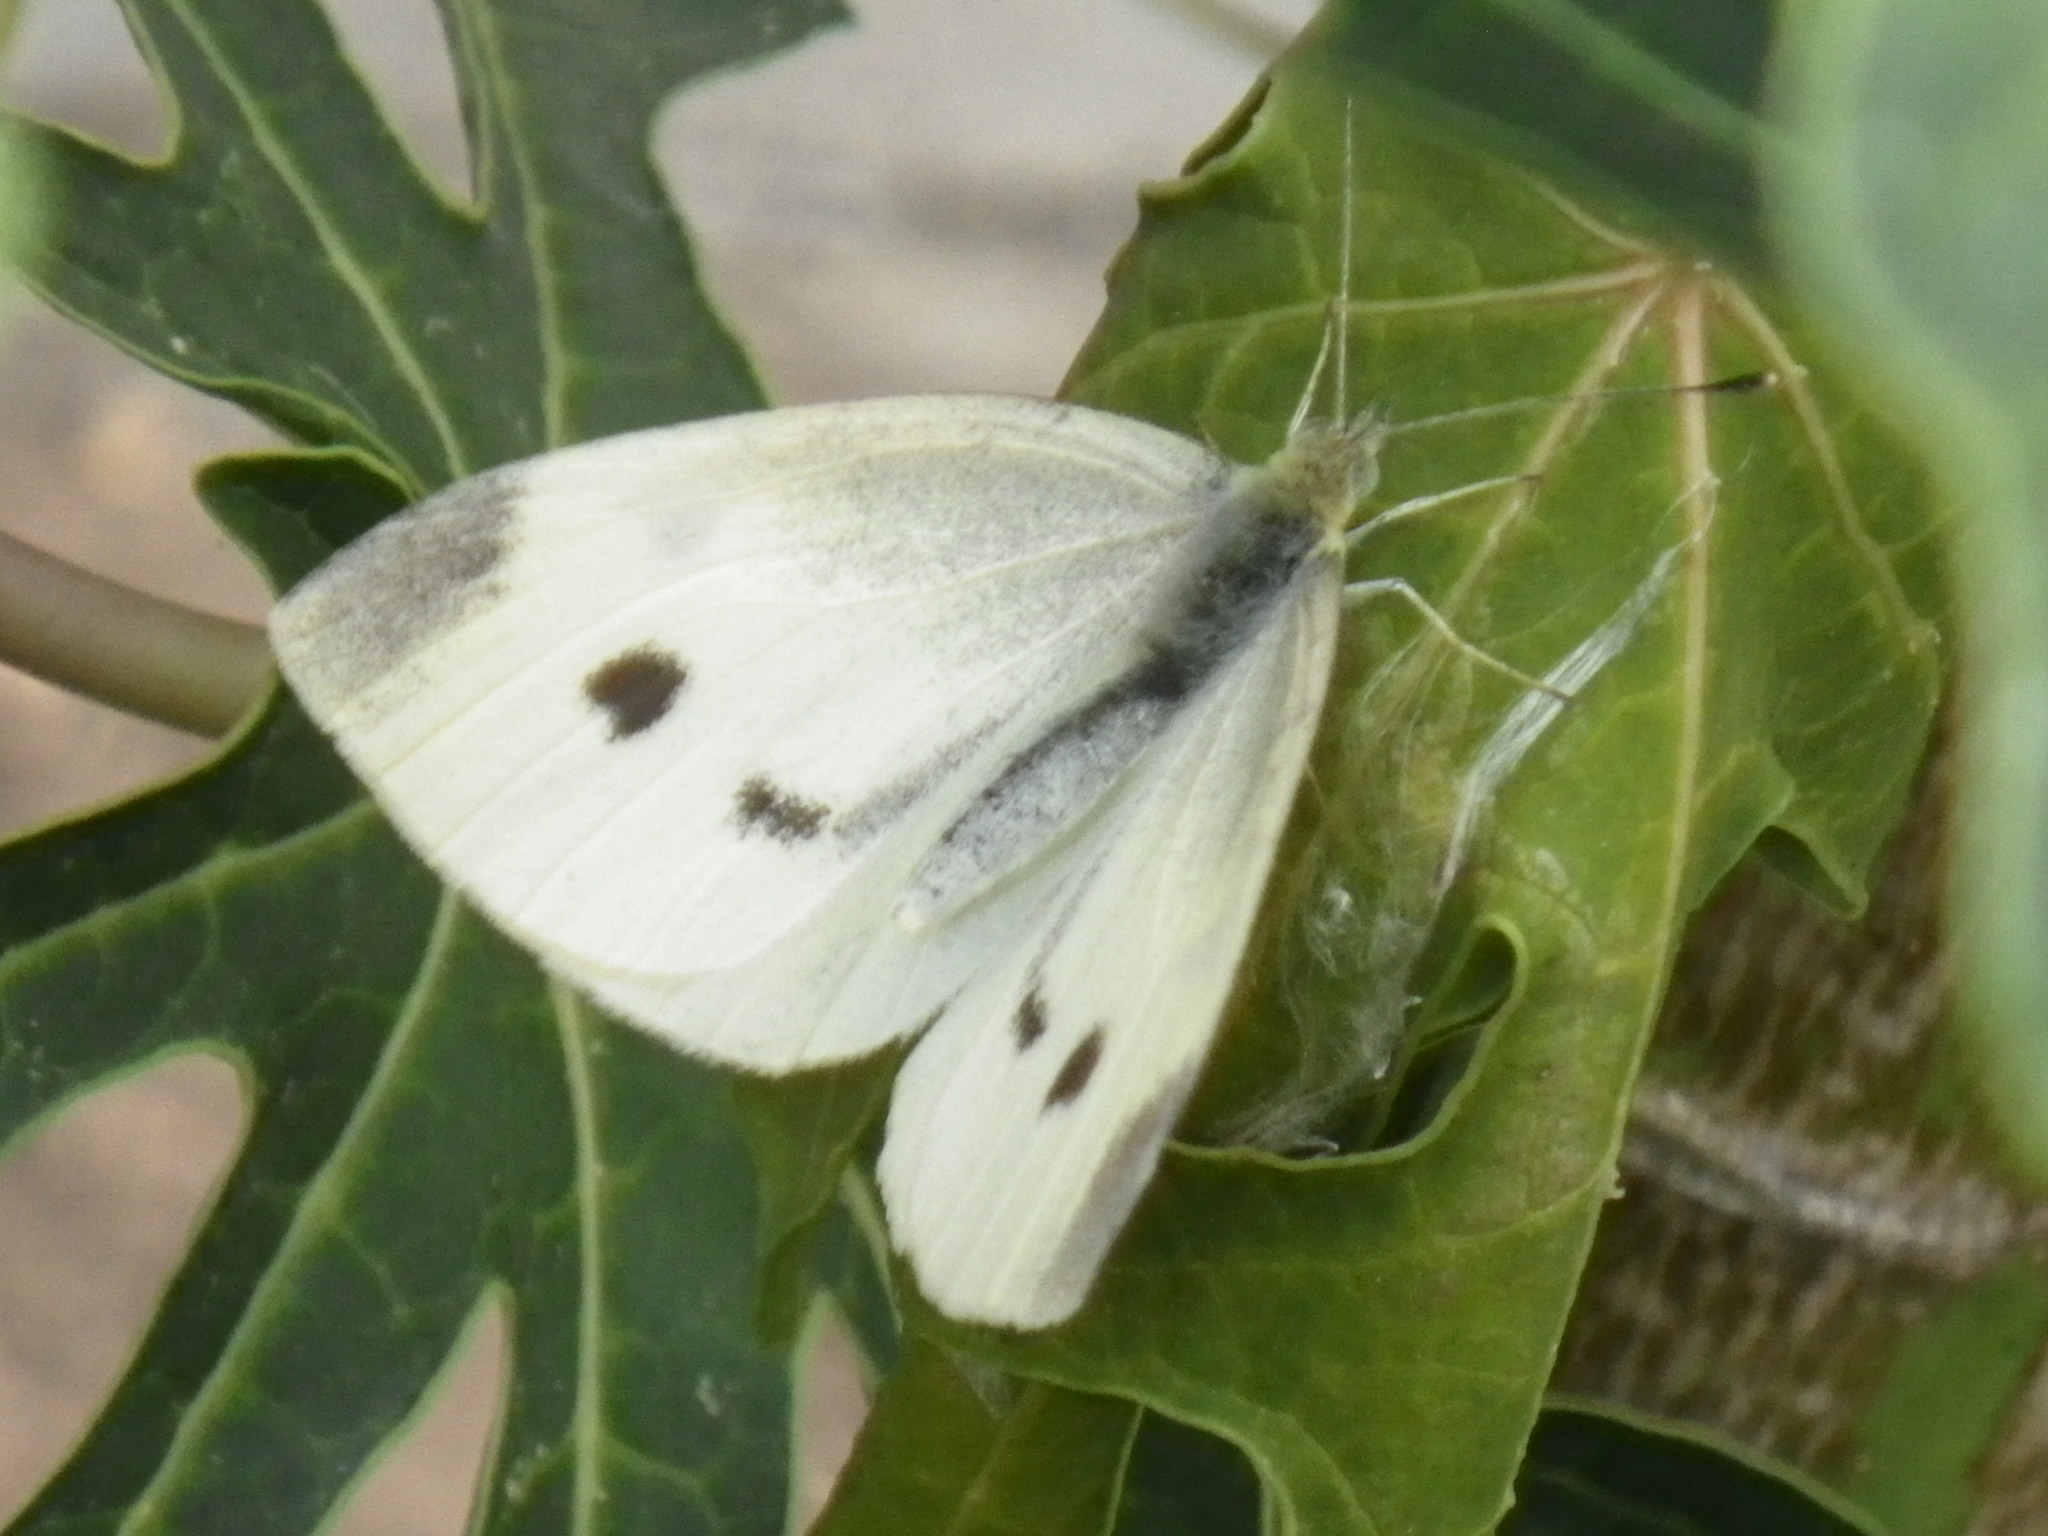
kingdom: Animalia
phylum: Arthropoda
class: Insecta
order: Lepidoptera
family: Pieridae
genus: Pieris
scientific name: Pieris rapae
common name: Small white
